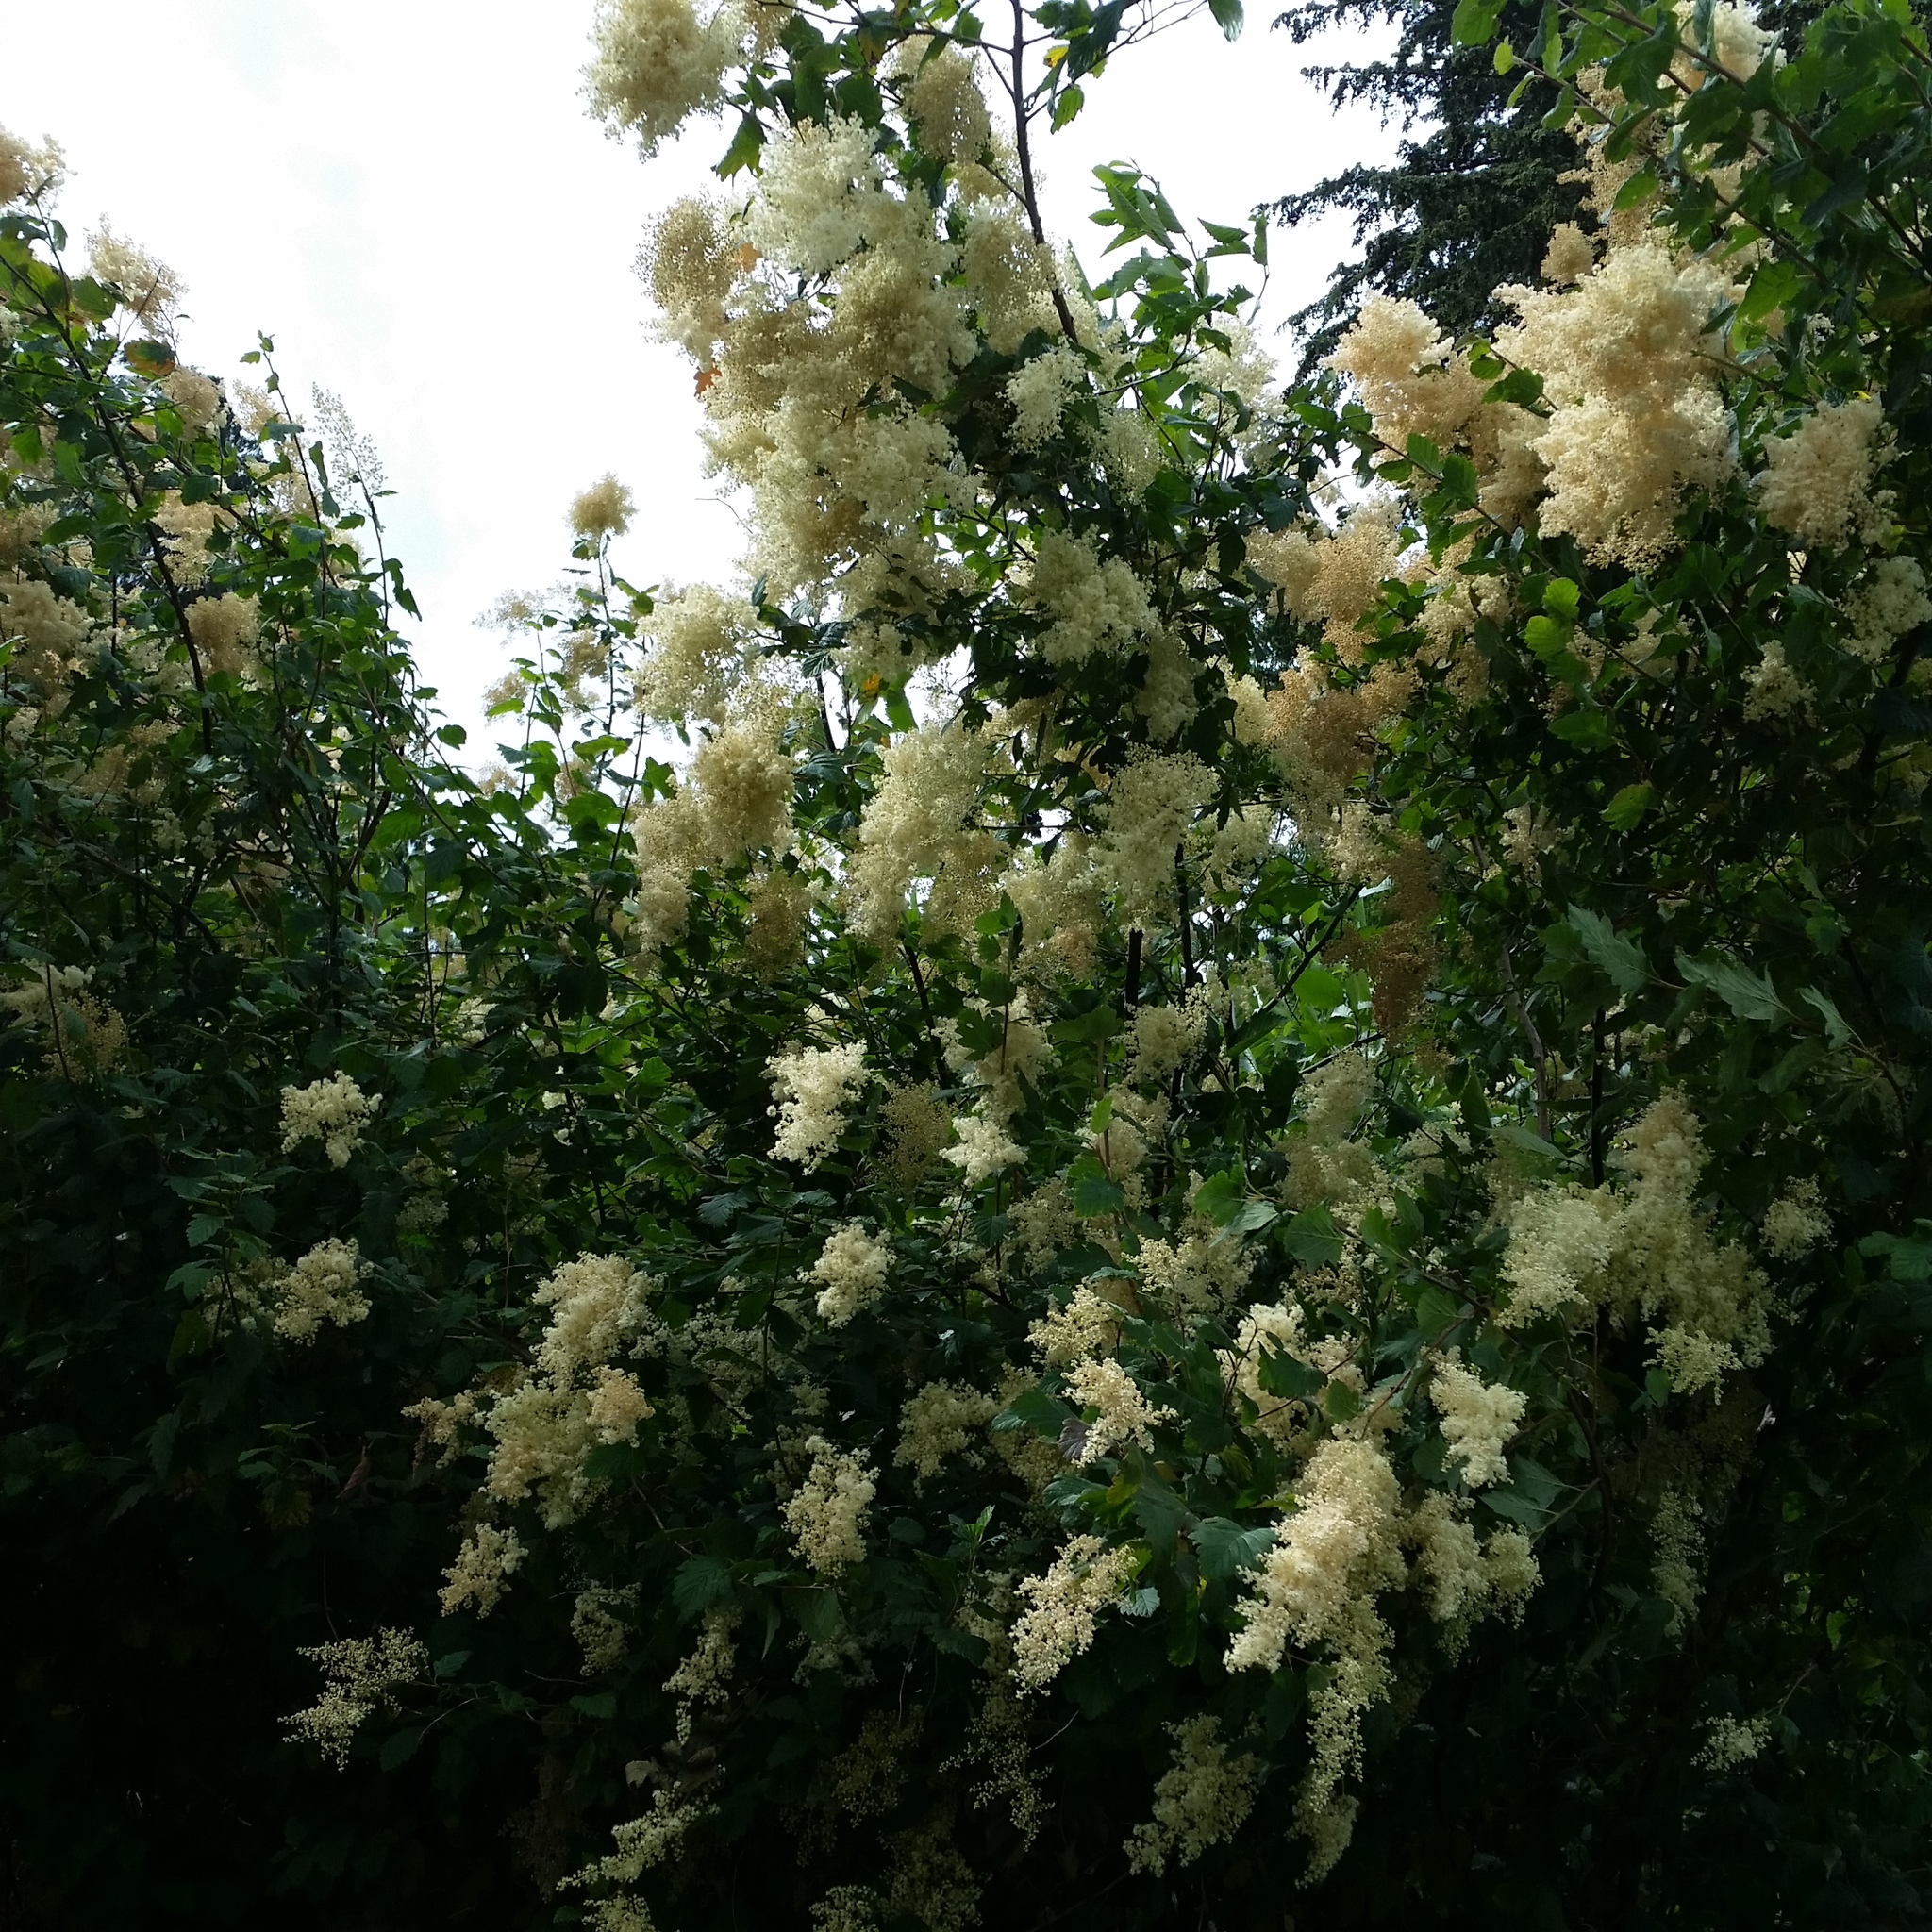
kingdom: Plantae
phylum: Tracheophyta
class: Magnoliopsida
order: Rosales
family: Rosaceae
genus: Holodiscus
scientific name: Holodiscus discolor
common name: Oceanspray
